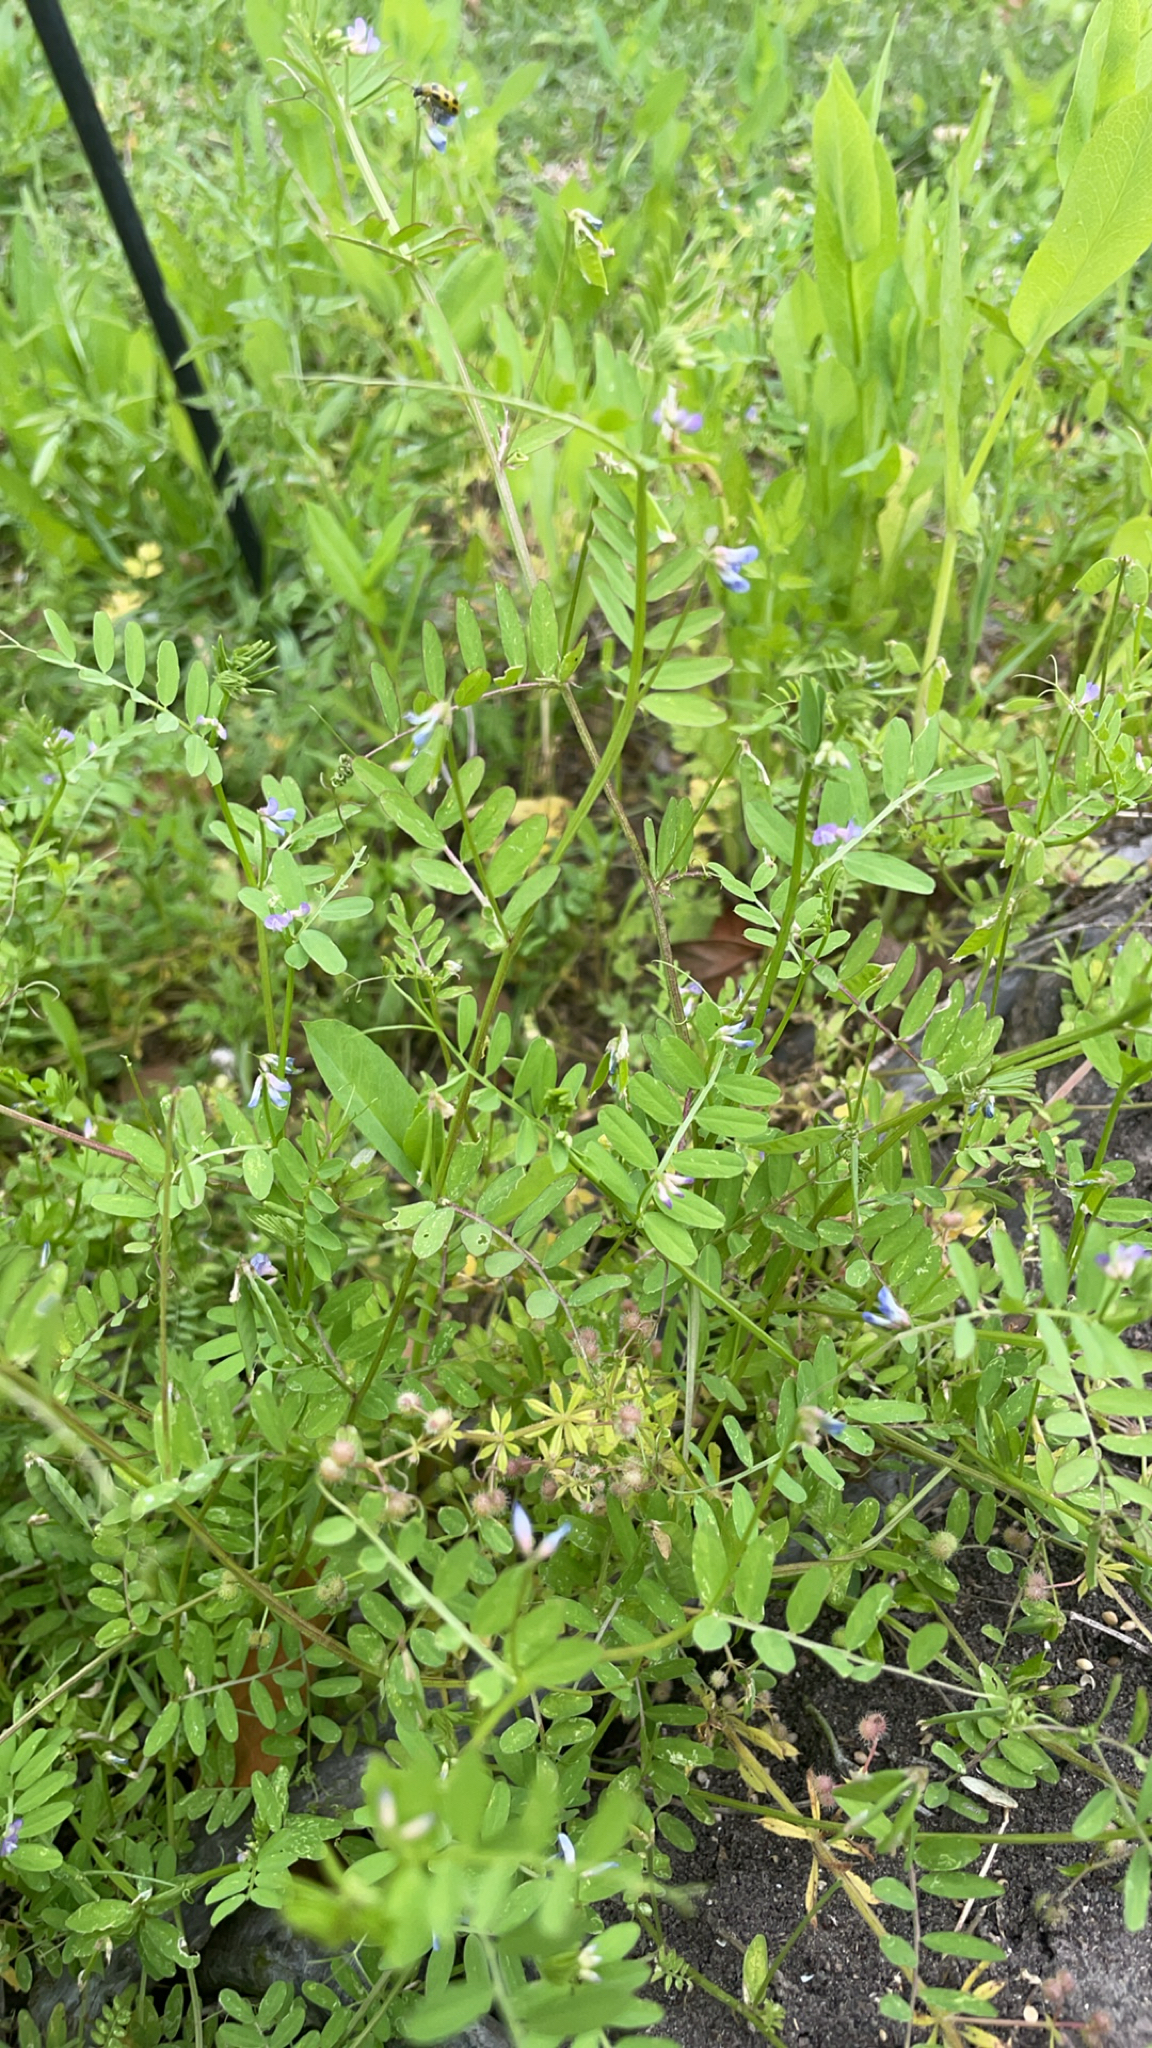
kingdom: Plantae
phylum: Tracheophyta
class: Magnoliopsida
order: Fabales
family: Fabaceae
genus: Vicia
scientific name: Vicia ludoviciana
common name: Louisiana vetch
